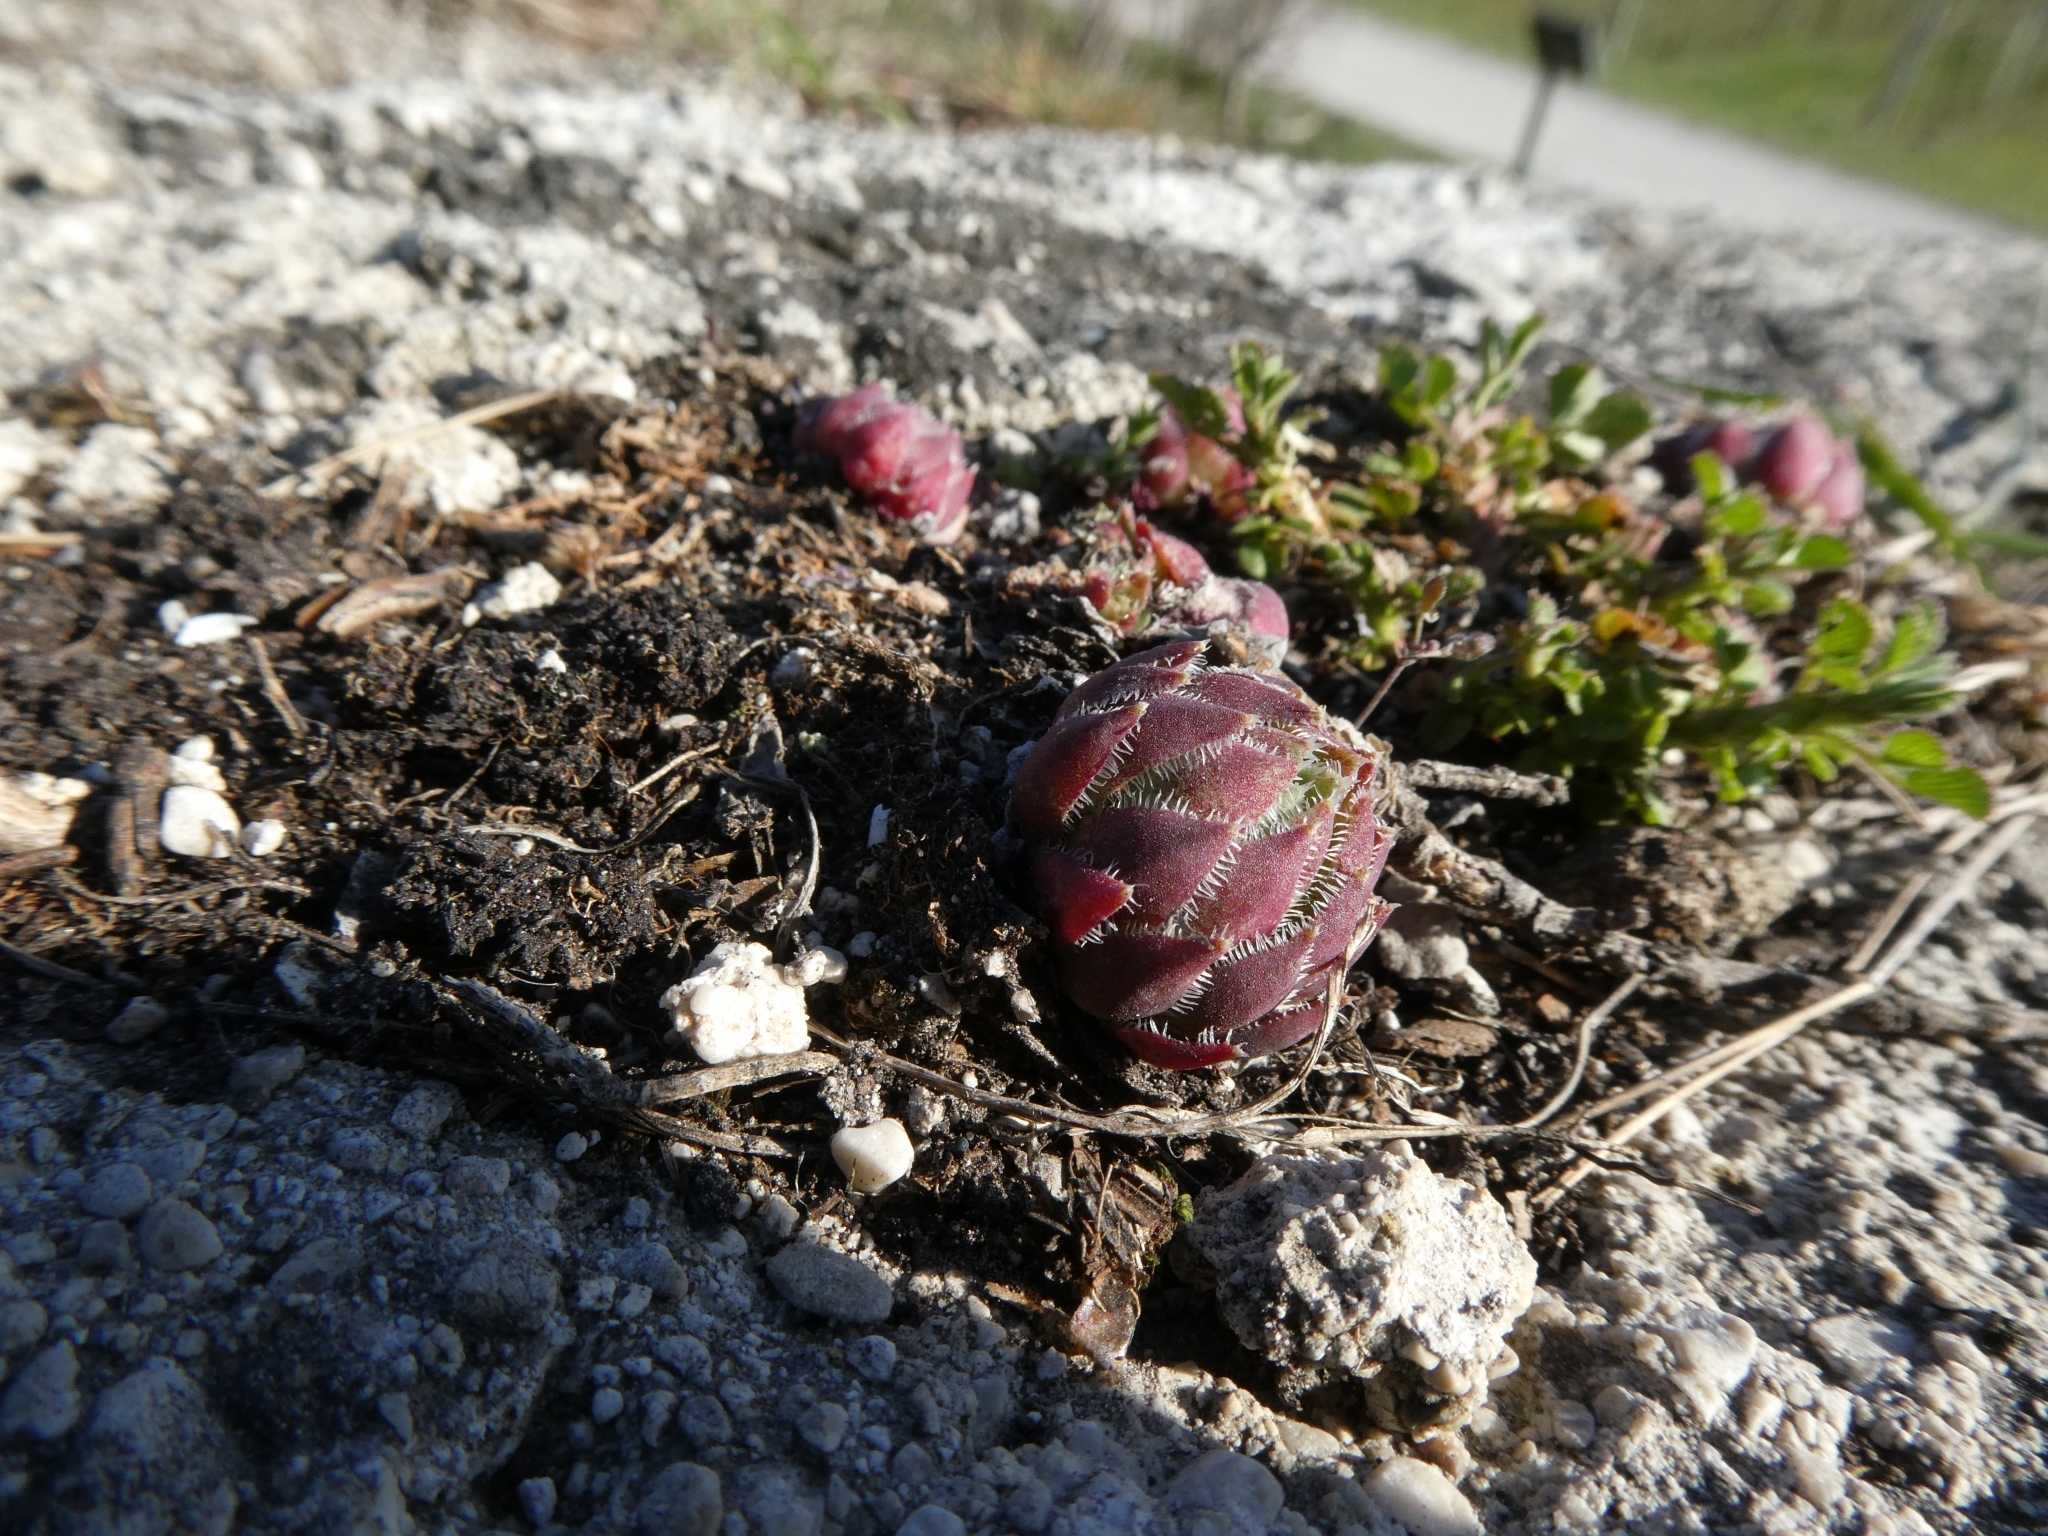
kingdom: Plantae
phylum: Tracheophyta
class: Magnoliopsida
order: Saxifragales
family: Crassulaceae
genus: Sempervivum
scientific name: Sempervivum globiferum
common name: Rolling hen-and-chicks
